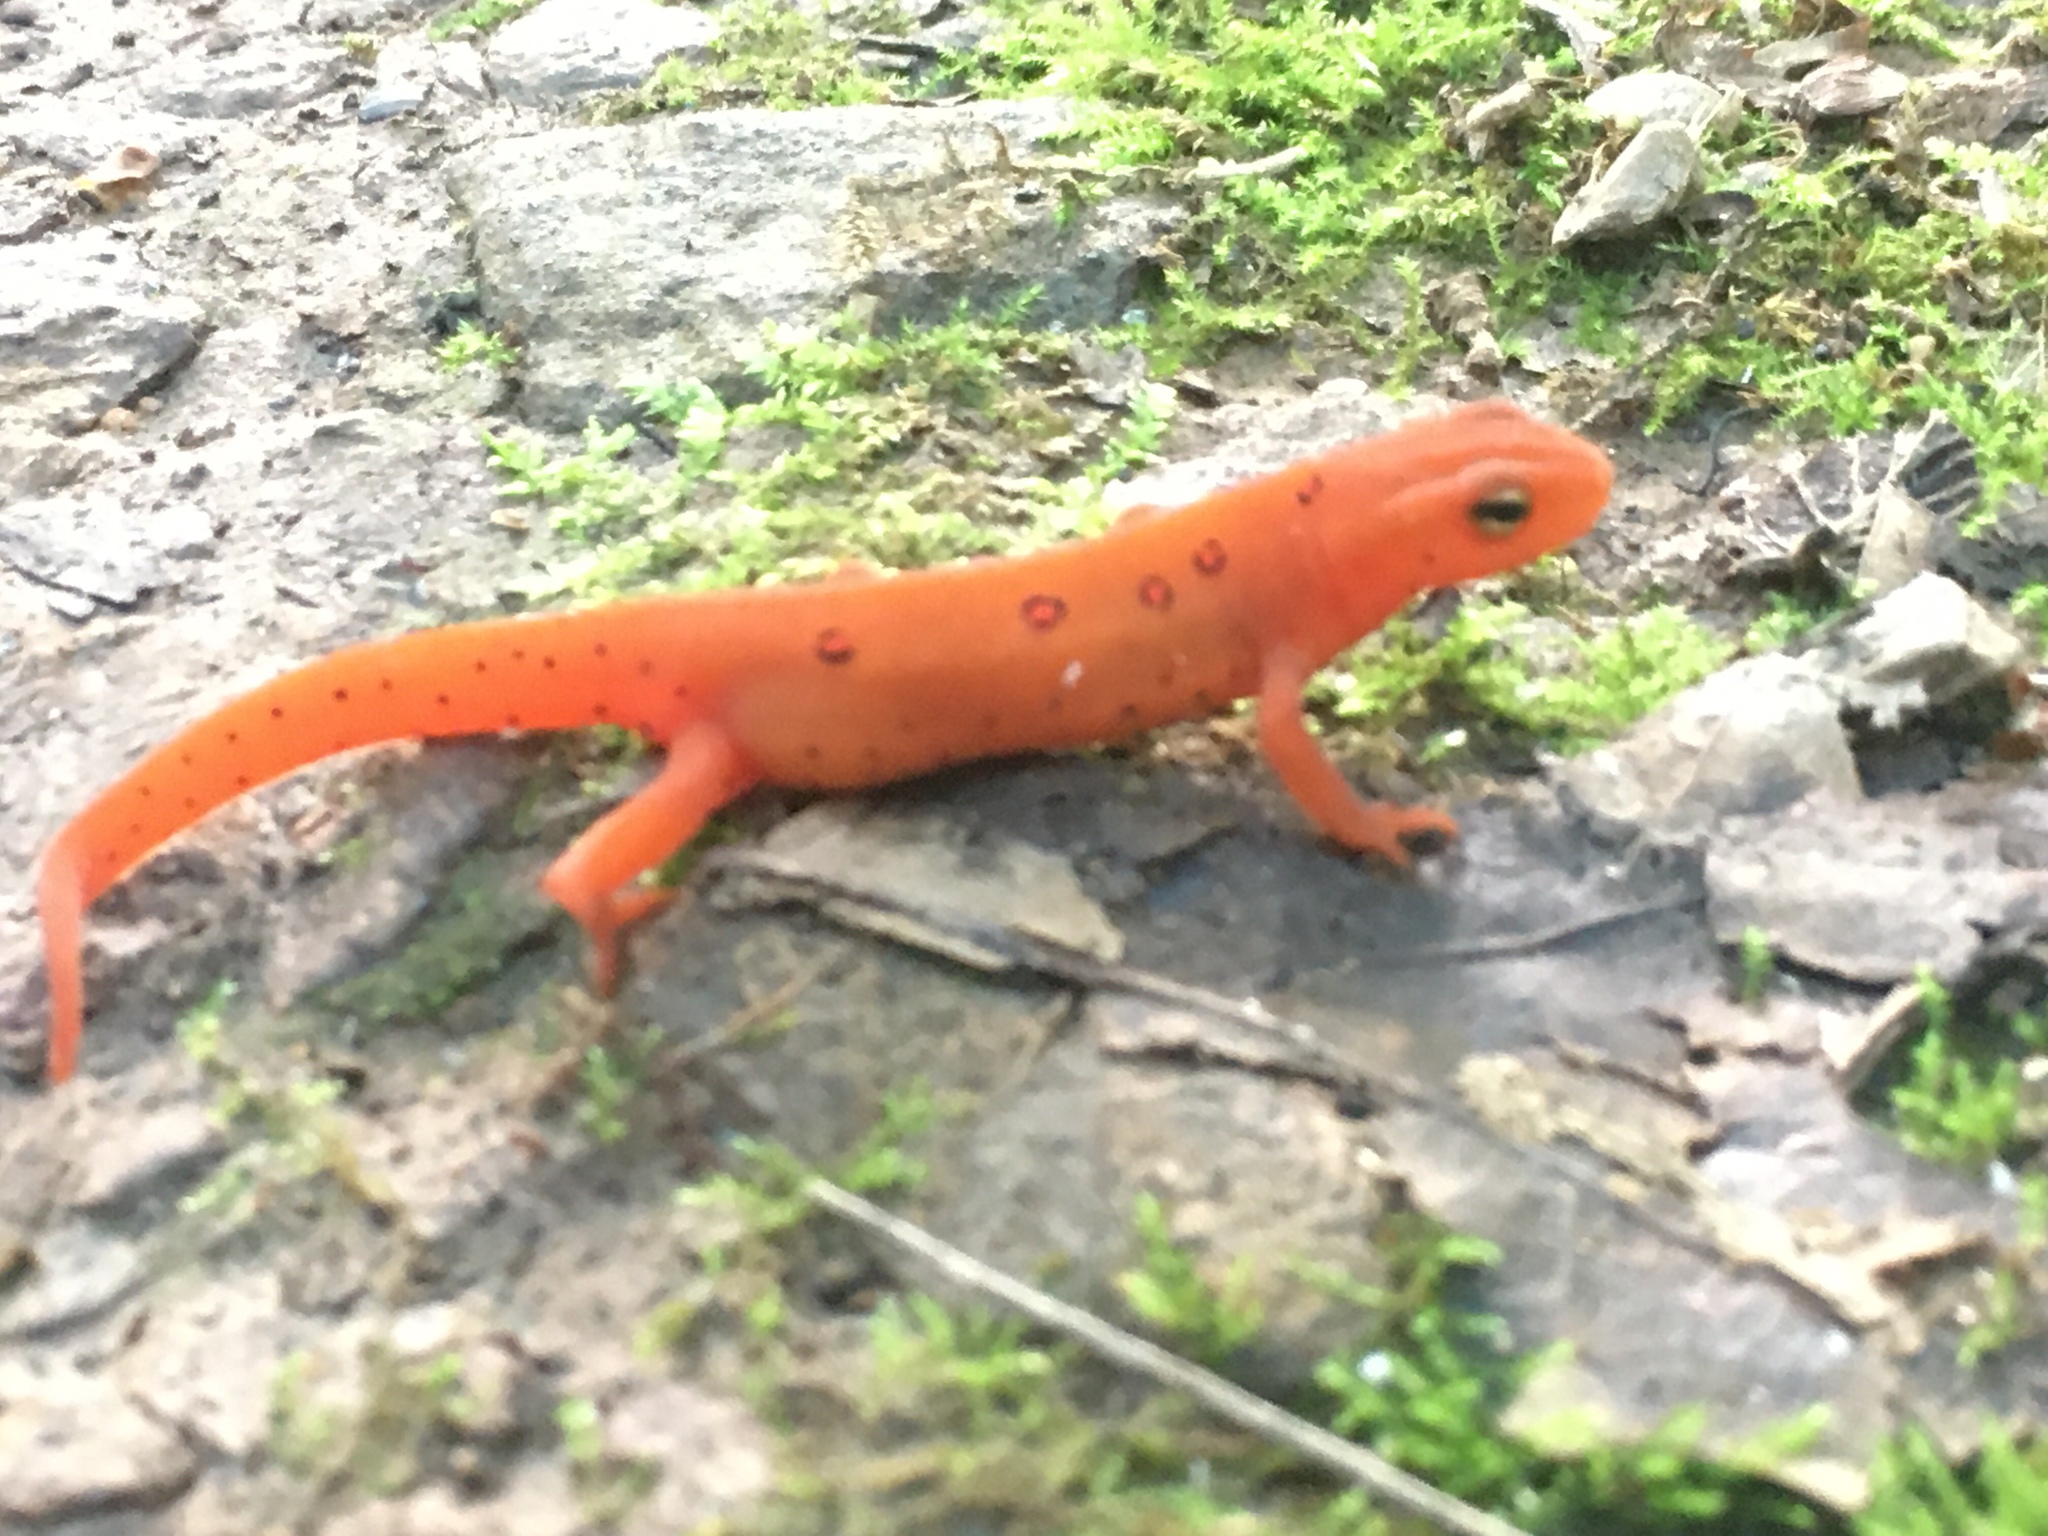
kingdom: Animalia
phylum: Chordata
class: Amphibia
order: Caudata
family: Salamandridae
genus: Notophthalmus
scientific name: Notophthalmus viridescens
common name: Eastern newt
